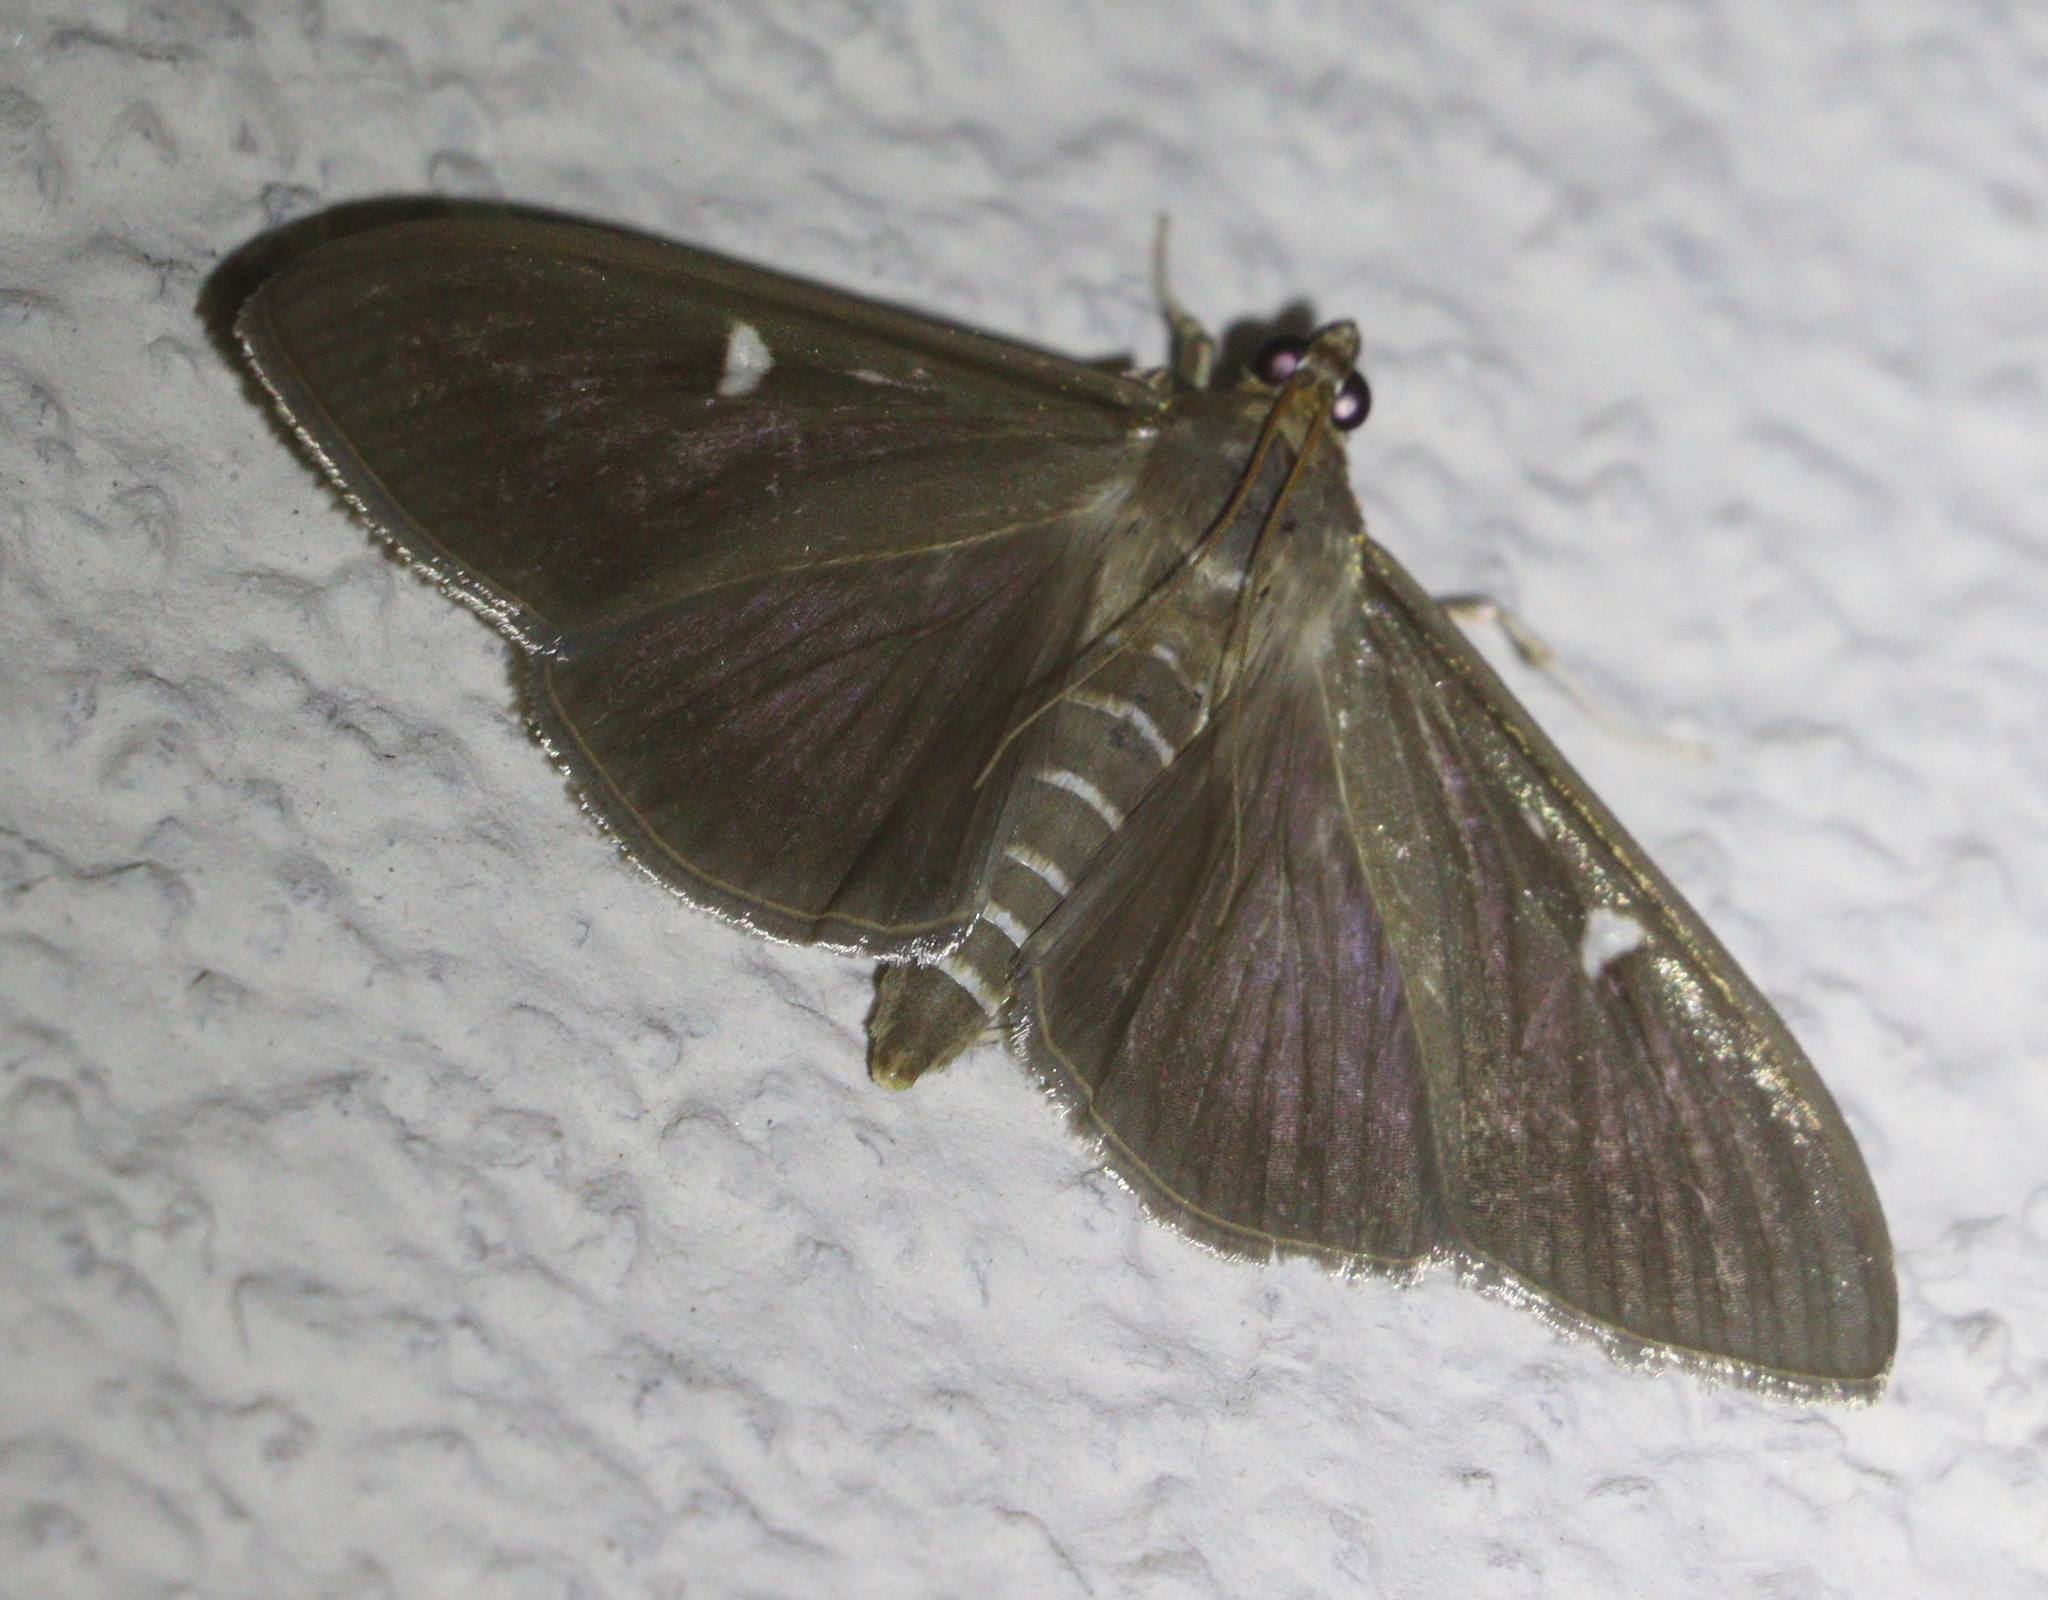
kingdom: Animalia
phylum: Arthropoda
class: Insecta
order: Lepidoptera
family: Crambidae
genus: Cydalima
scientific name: Cydalima perspectalis
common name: Box tree moth
